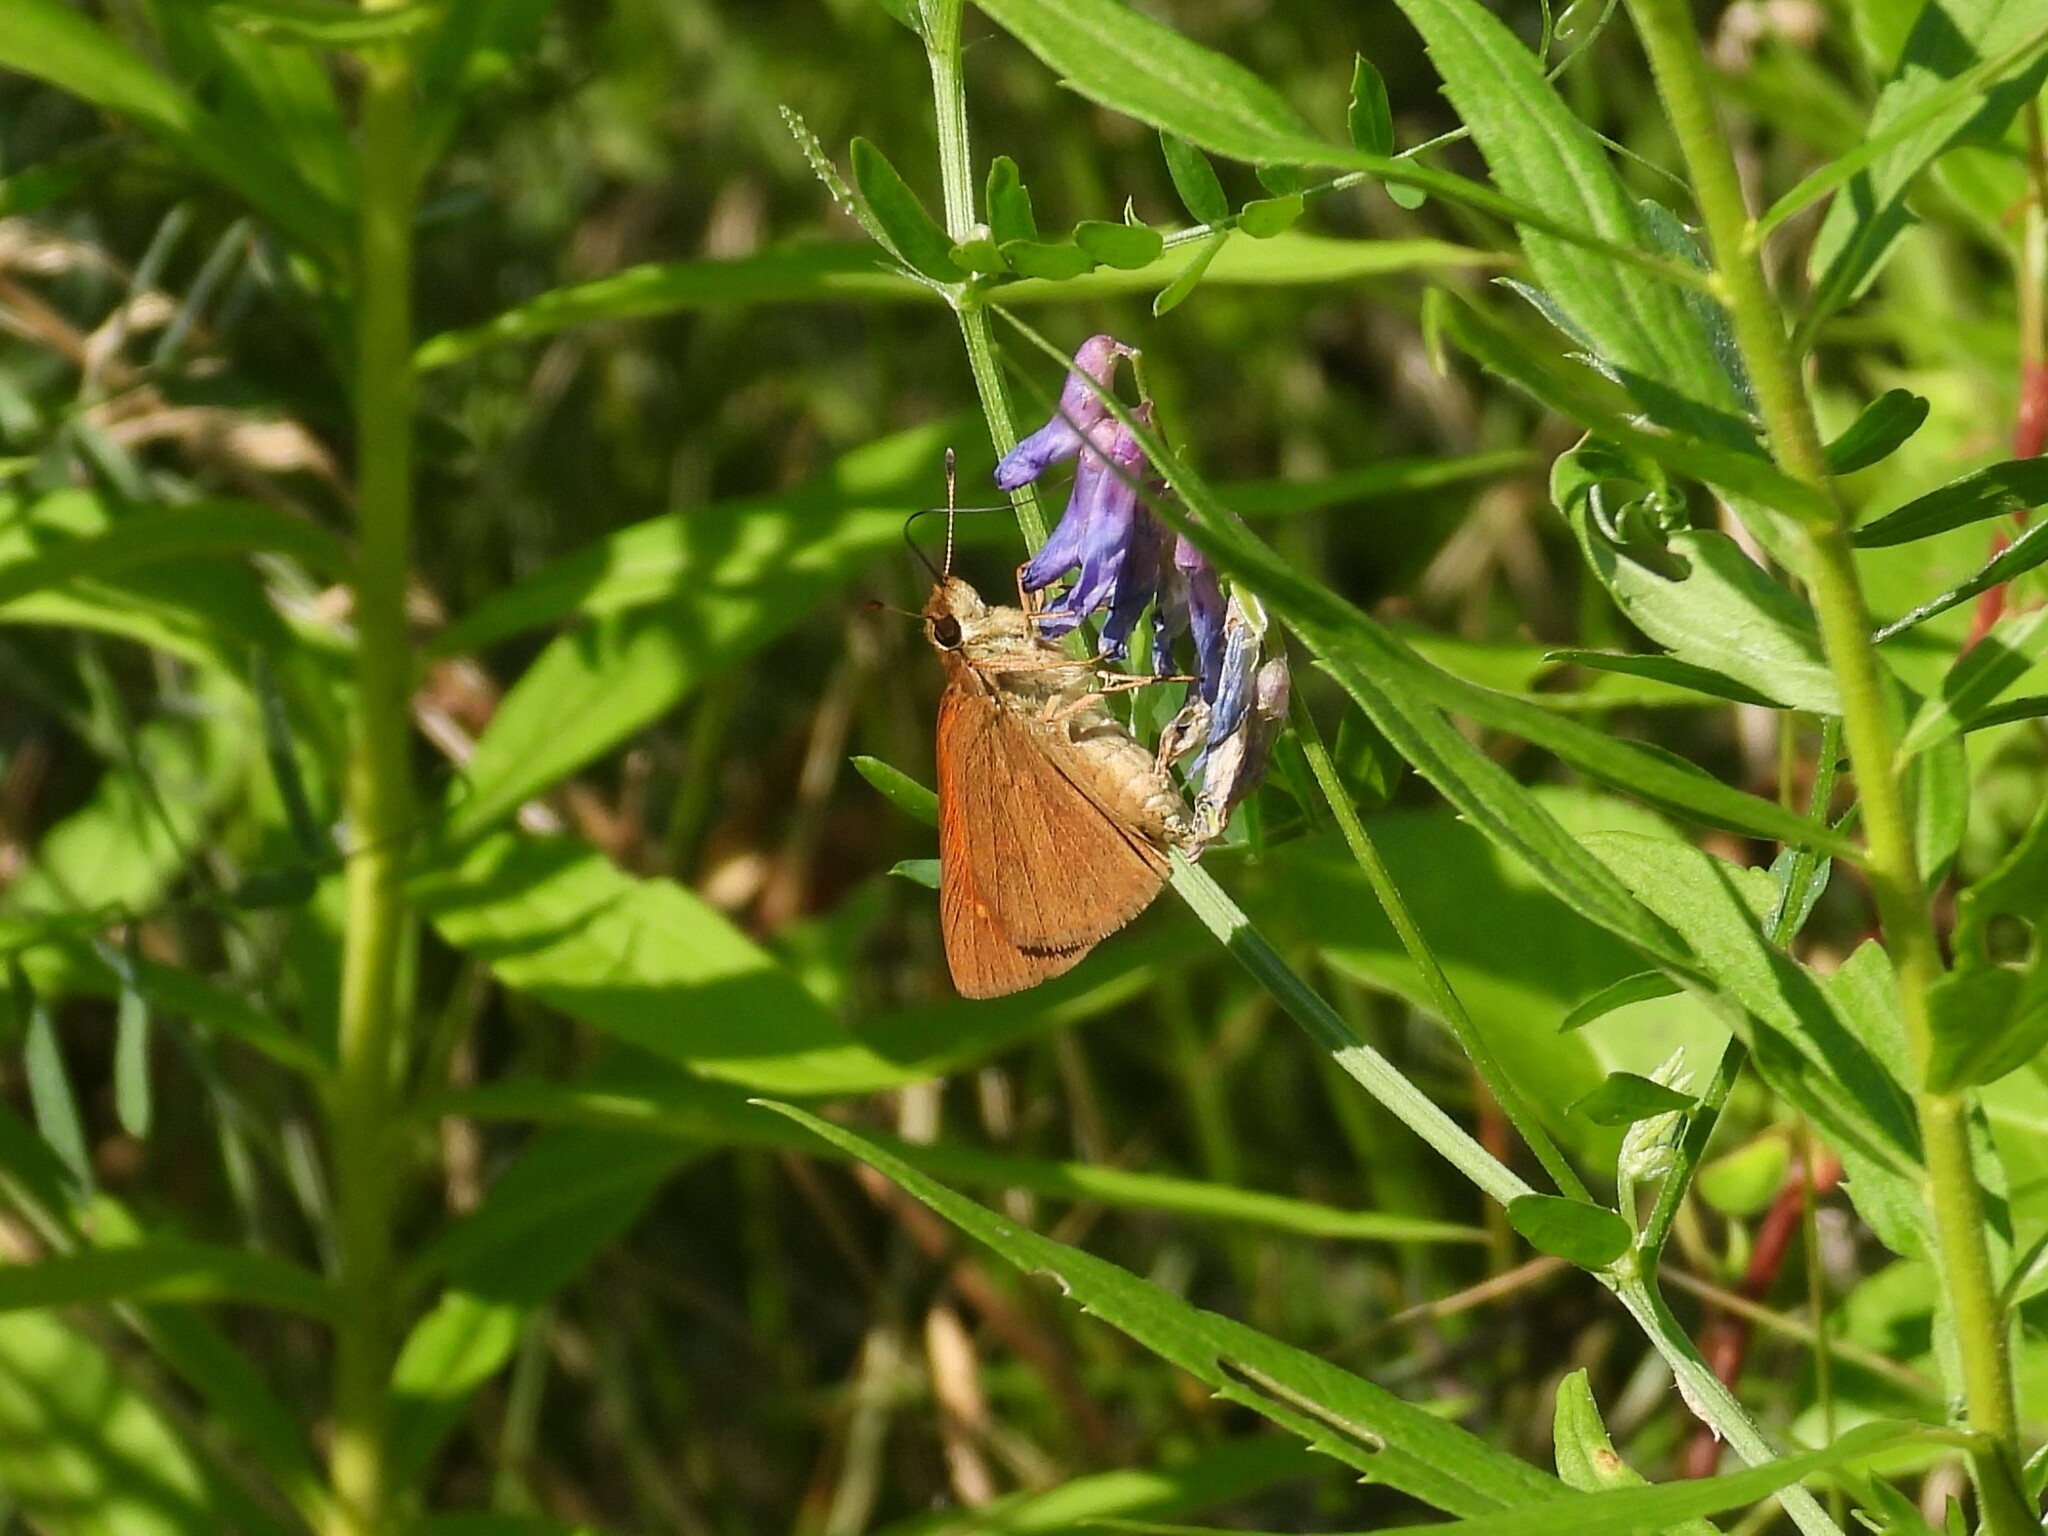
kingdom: Animalia
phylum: Arthropoda
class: Insecta
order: Lepidoptera
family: Hesperiidae
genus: Poanes
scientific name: Poanes viator
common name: Broad-winged skipper
